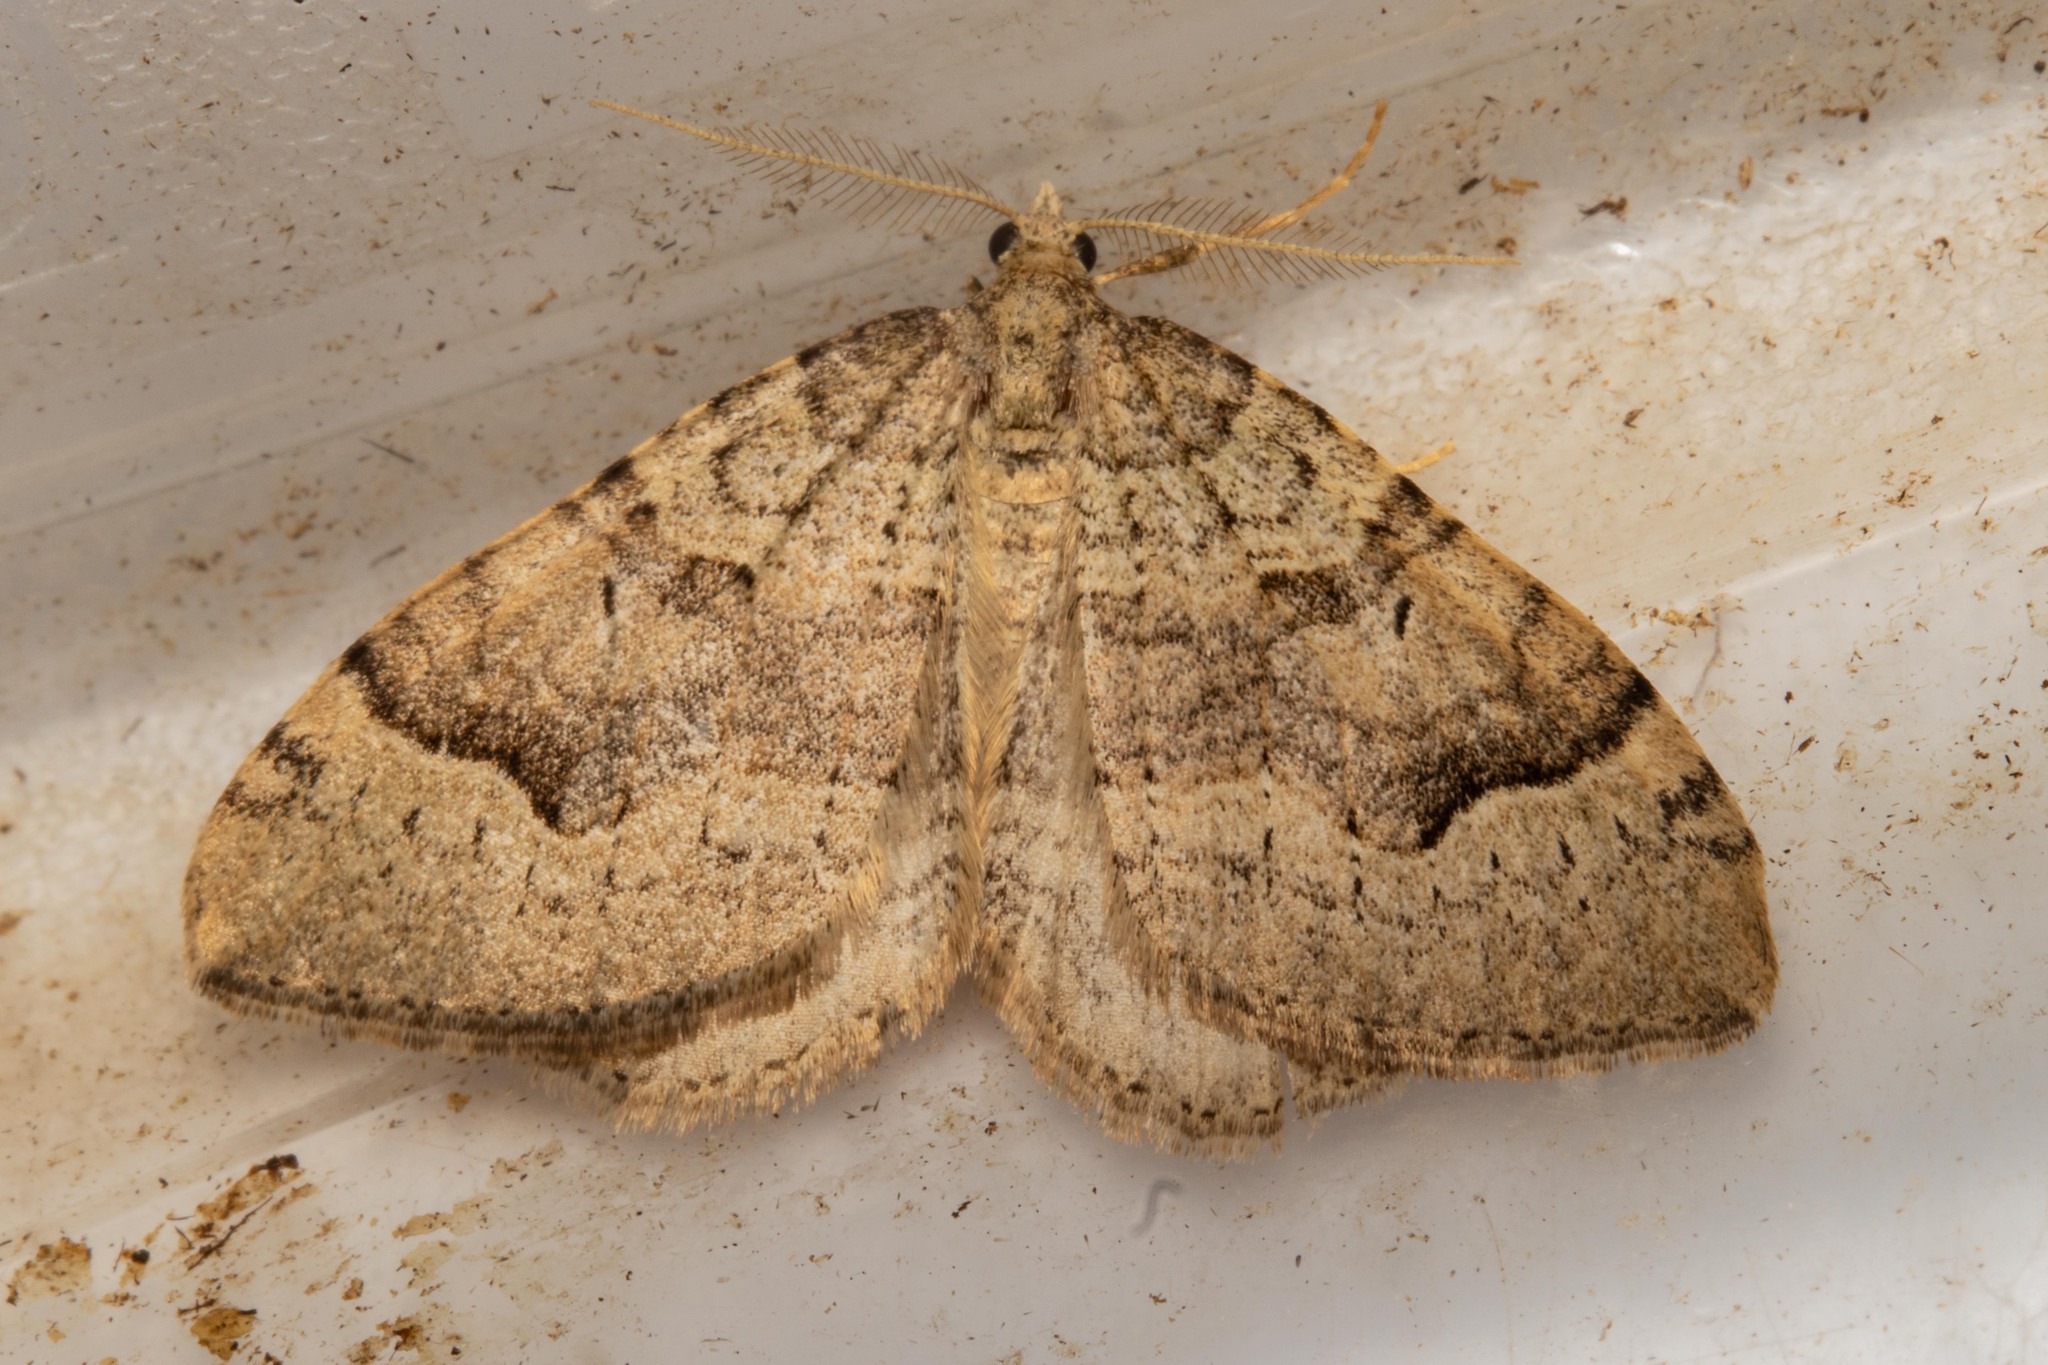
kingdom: Animalia
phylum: Arthropoda
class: Insecta
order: Lepidoptera
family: Geometridae
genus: Epyaxa
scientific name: Epyaxa rosearia
